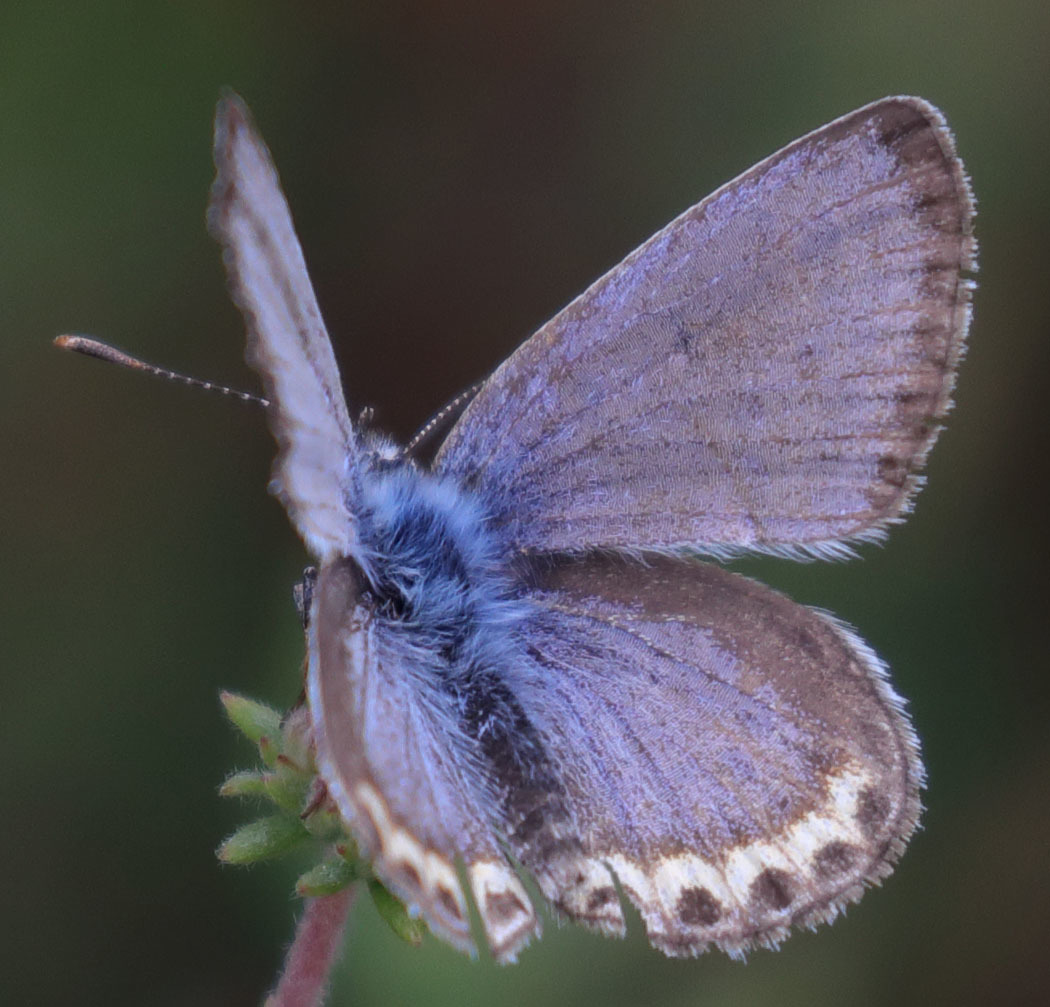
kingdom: Animalia
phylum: Arthropoda
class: Insecta
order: Lepidoptera
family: Lycaenidae
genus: Icaricia
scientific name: Icaricia lupini
